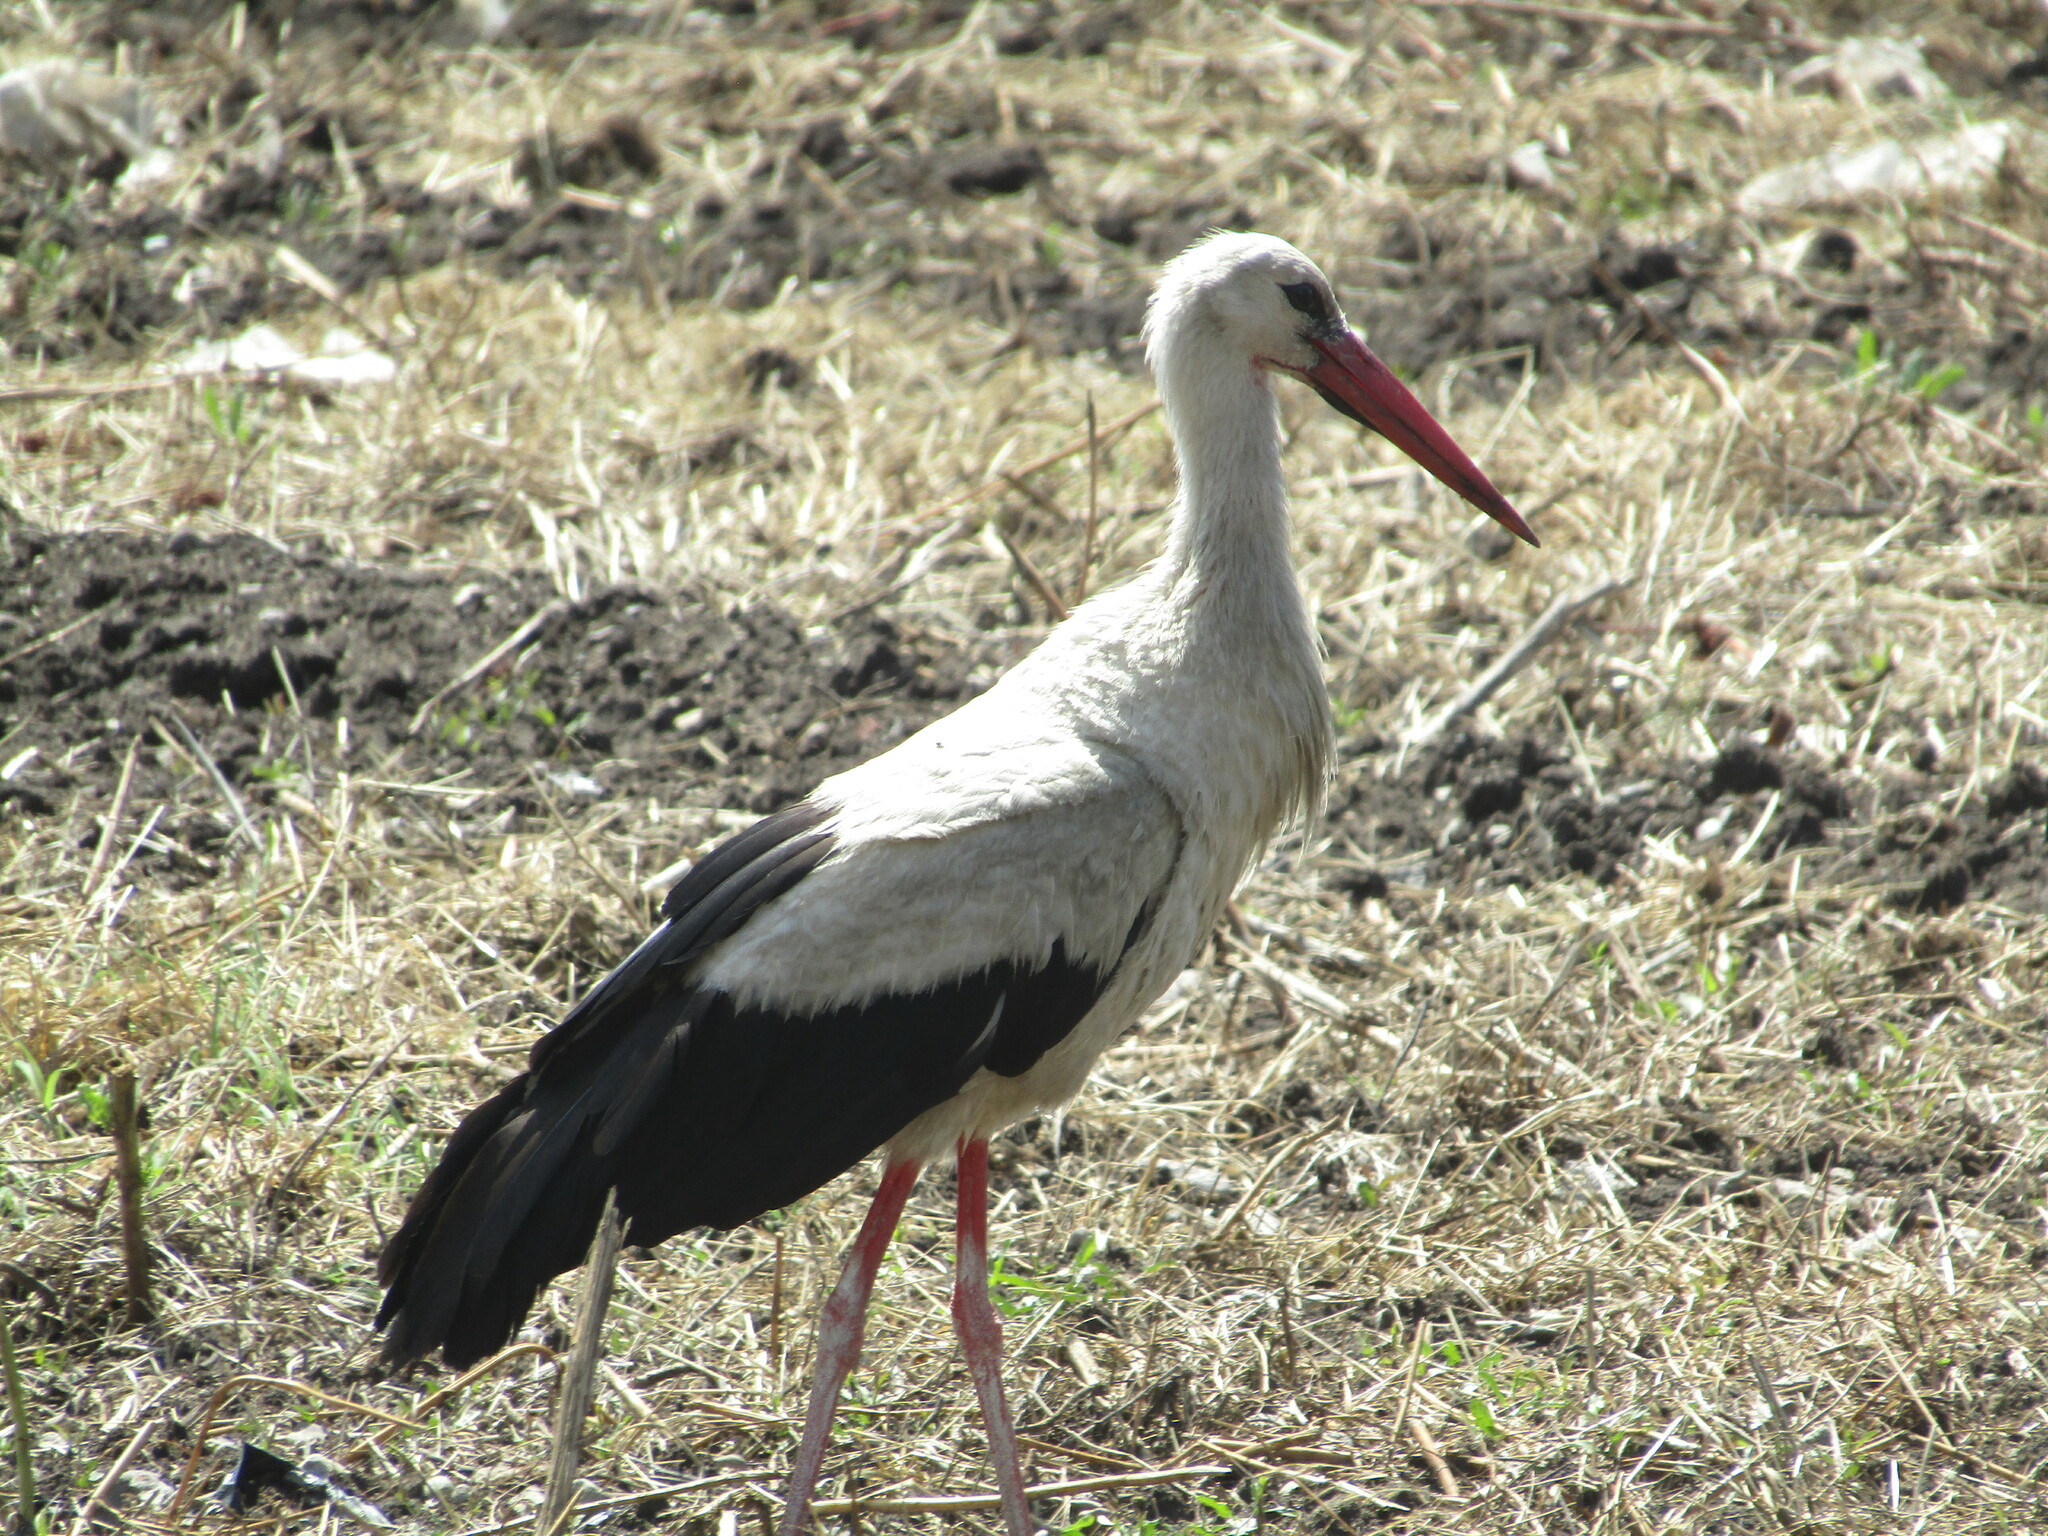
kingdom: Animalia
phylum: Chordata
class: Aves
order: Ciconiiformes
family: Ciconiidae
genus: Ciconia
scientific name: Ciconia ciconia
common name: White stork
